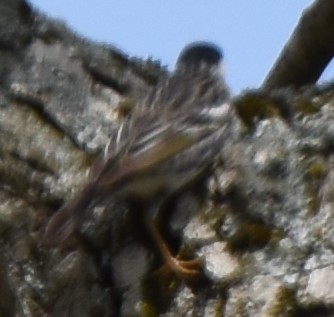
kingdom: Animalia
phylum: Chordata
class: Aves
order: Passeriformes
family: Parulidae
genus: Setophaga
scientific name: Setophaga striata
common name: Blackpoll warbler
